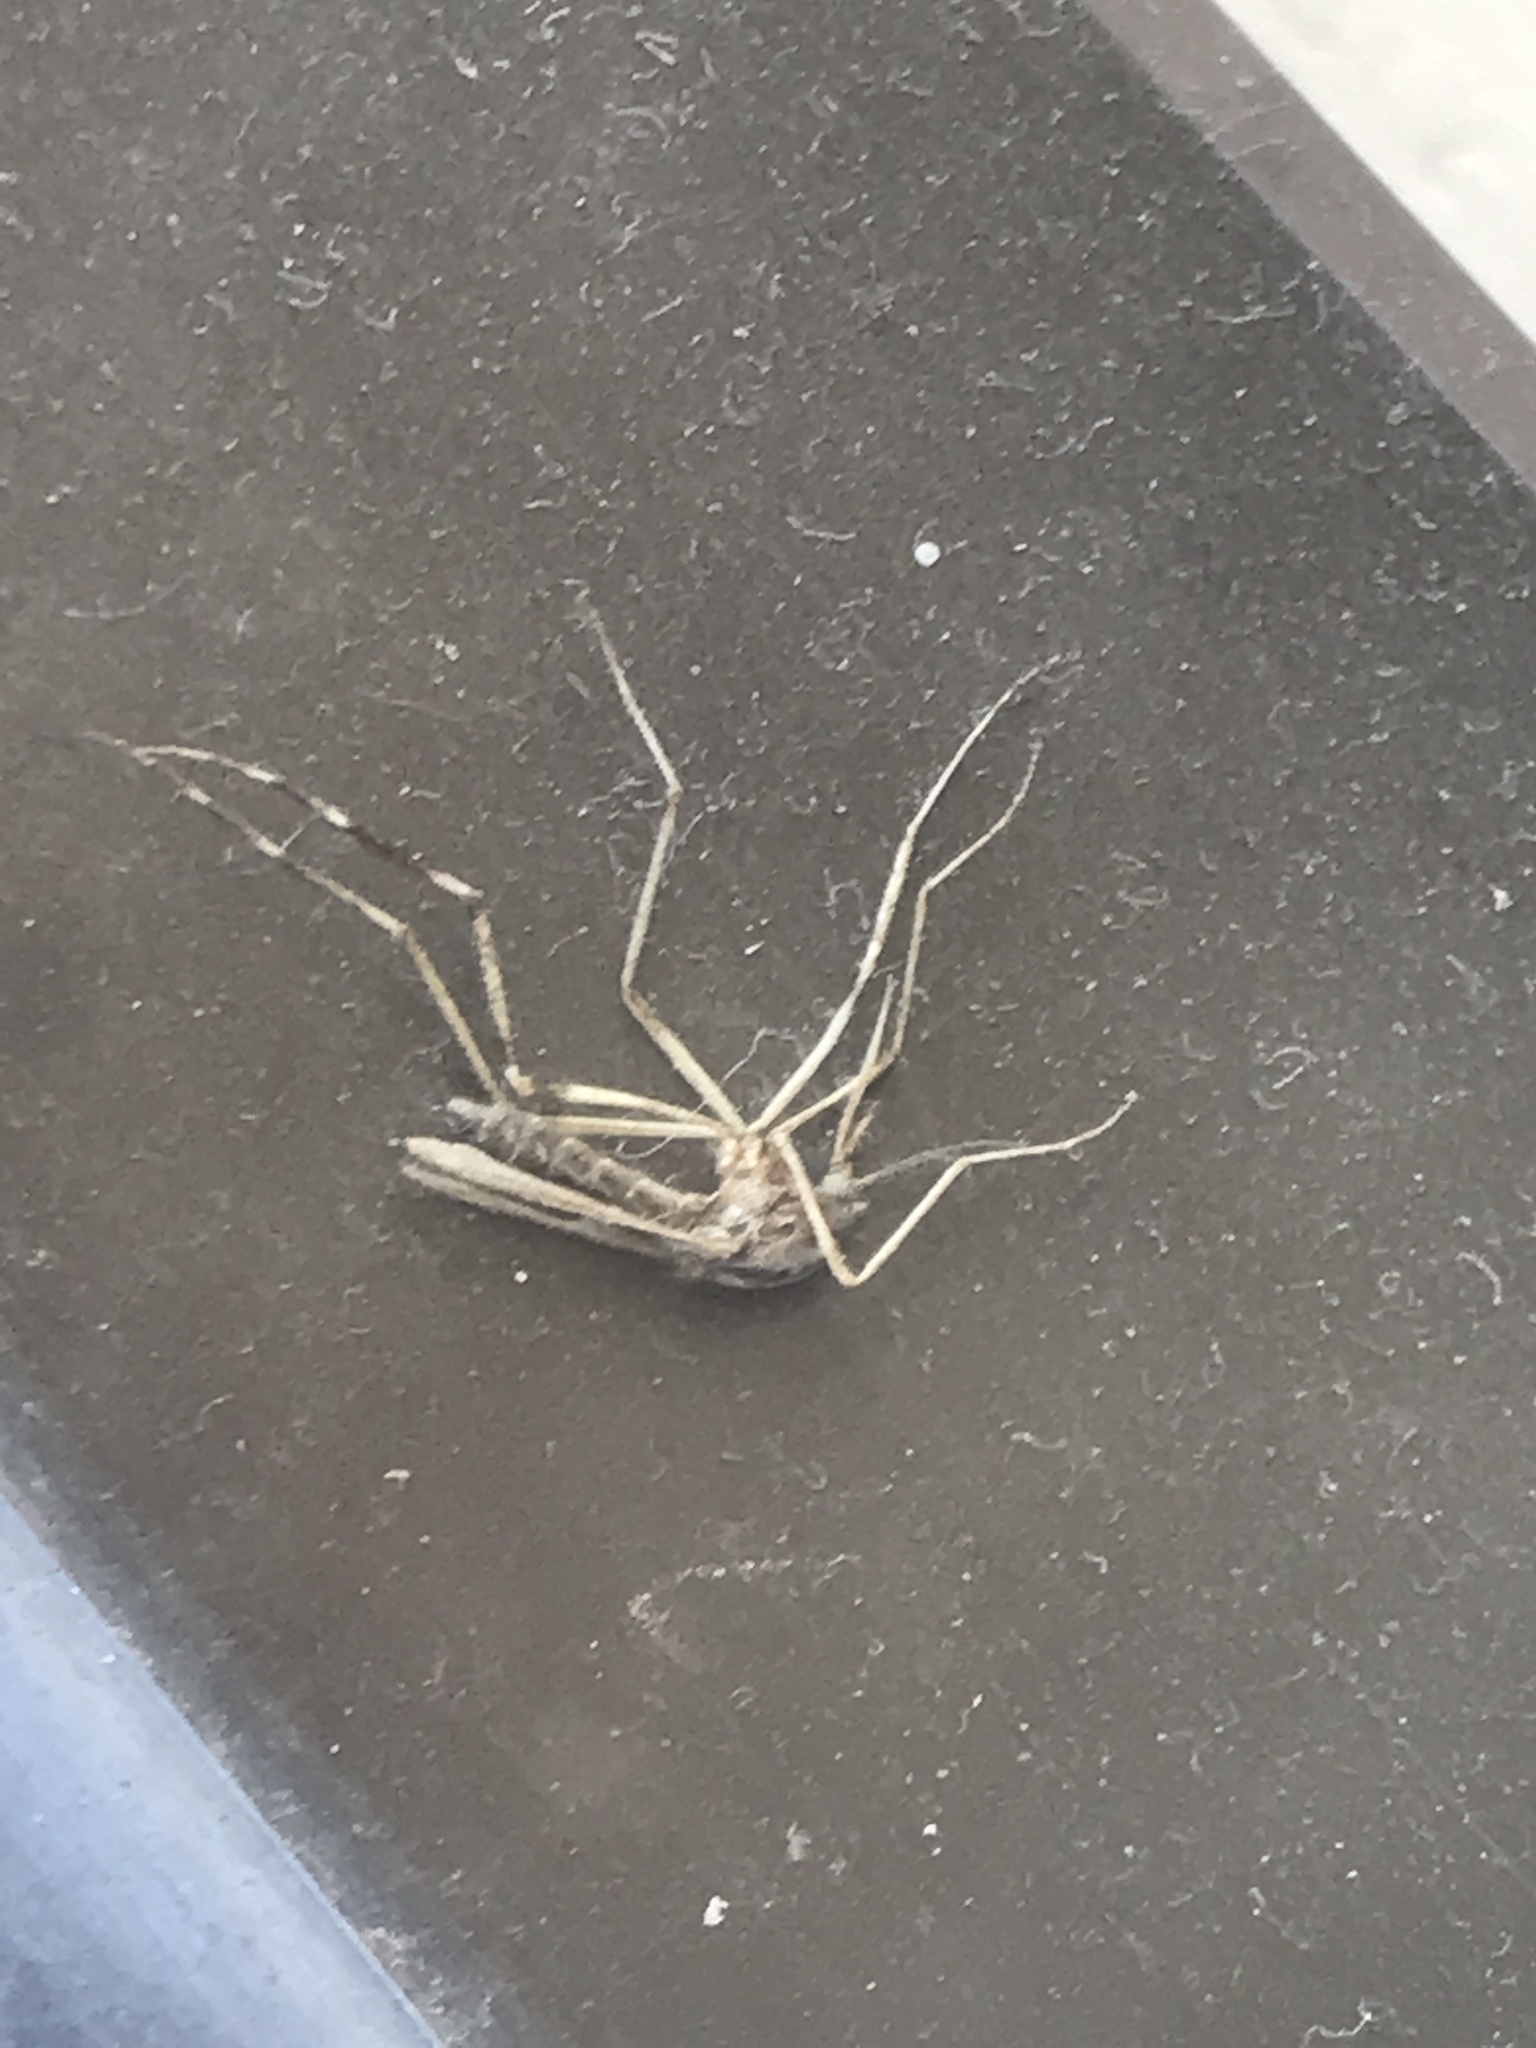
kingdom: Animalia
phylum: Arthropoda
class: Insecta
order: Diptera
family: Culicidae
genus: Psorophora
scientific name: Psorophora ciliata
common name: Gallinipper
